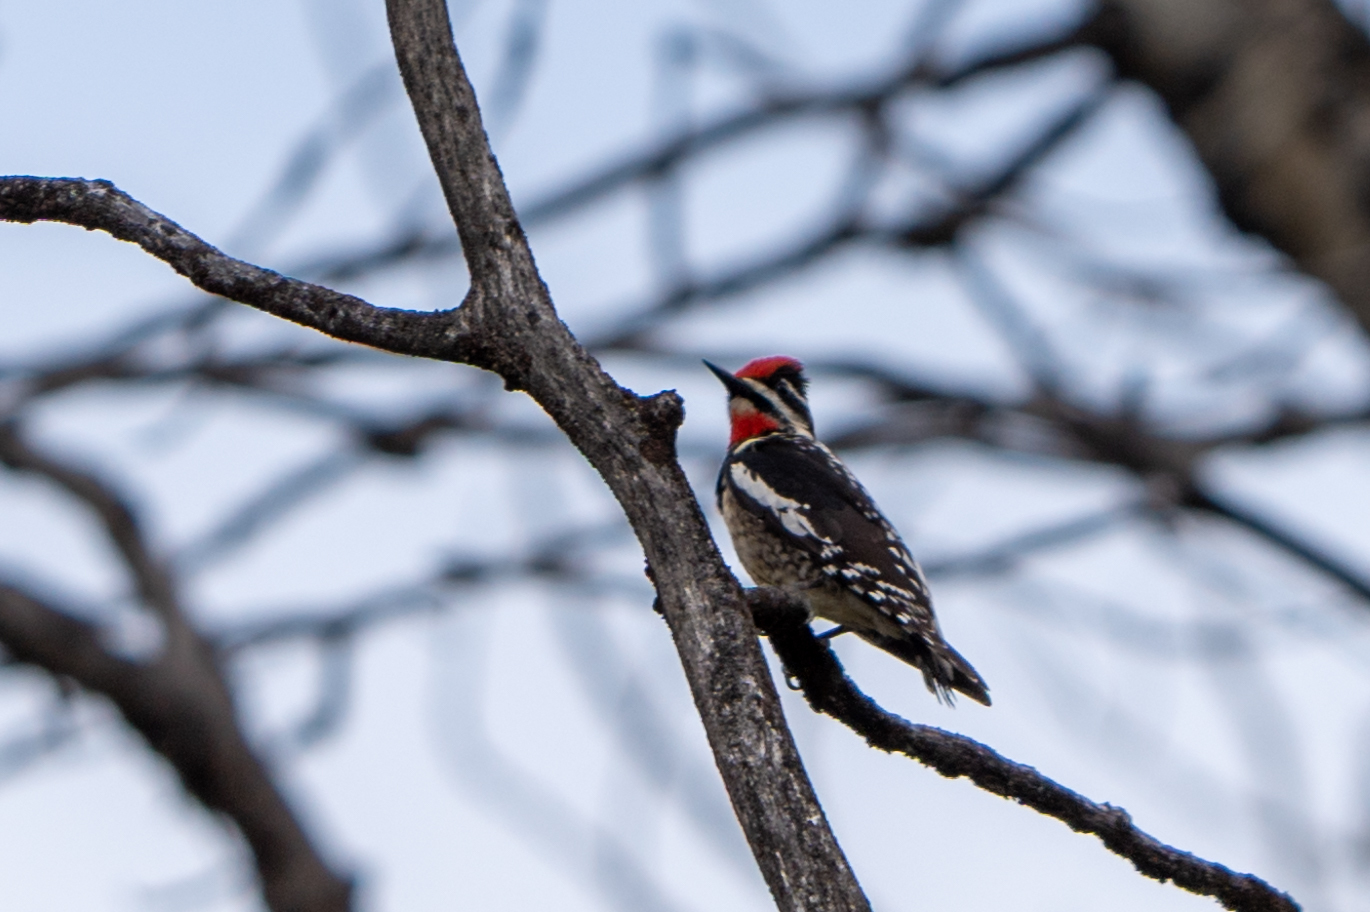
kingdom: Animalia
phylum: Chordata
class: Aves
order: Piciformes
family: Picidae
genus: Sphyrapicus
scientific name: Sphyrapicus nuchalis
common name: Red-naped sapsucker
